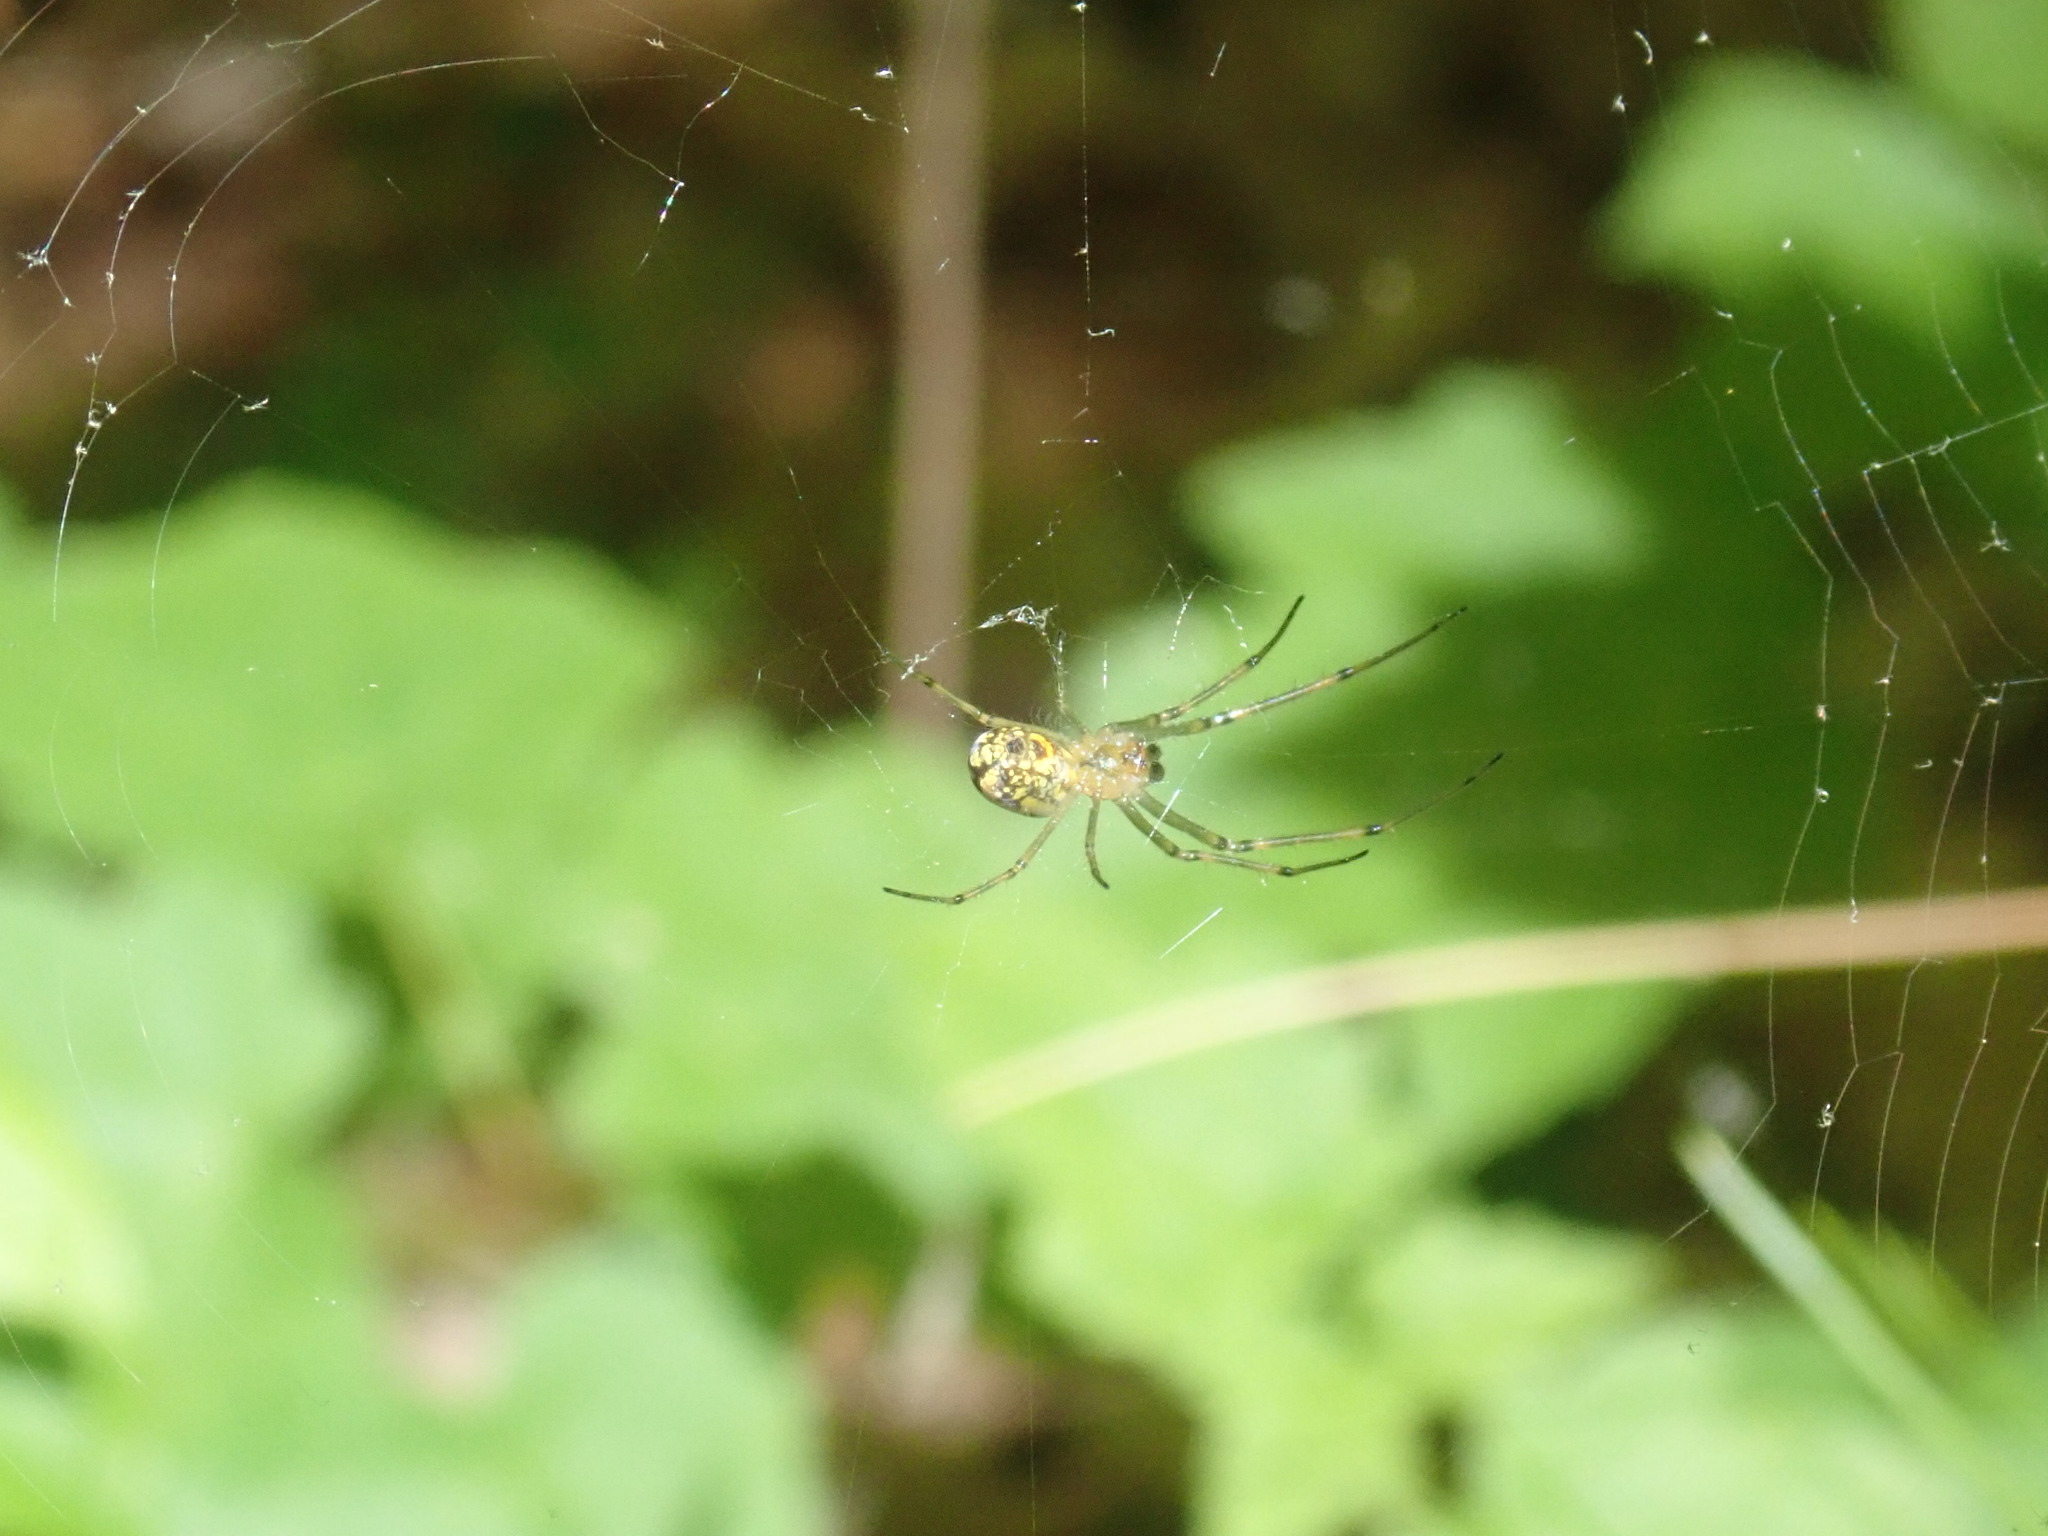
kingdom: Animalia
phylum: Arthropoda
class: Arachnida
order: Araneae
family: Tetragnathidae
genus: Leucauge
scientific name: Leucauge venusta
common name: Longjawed orb weavers
